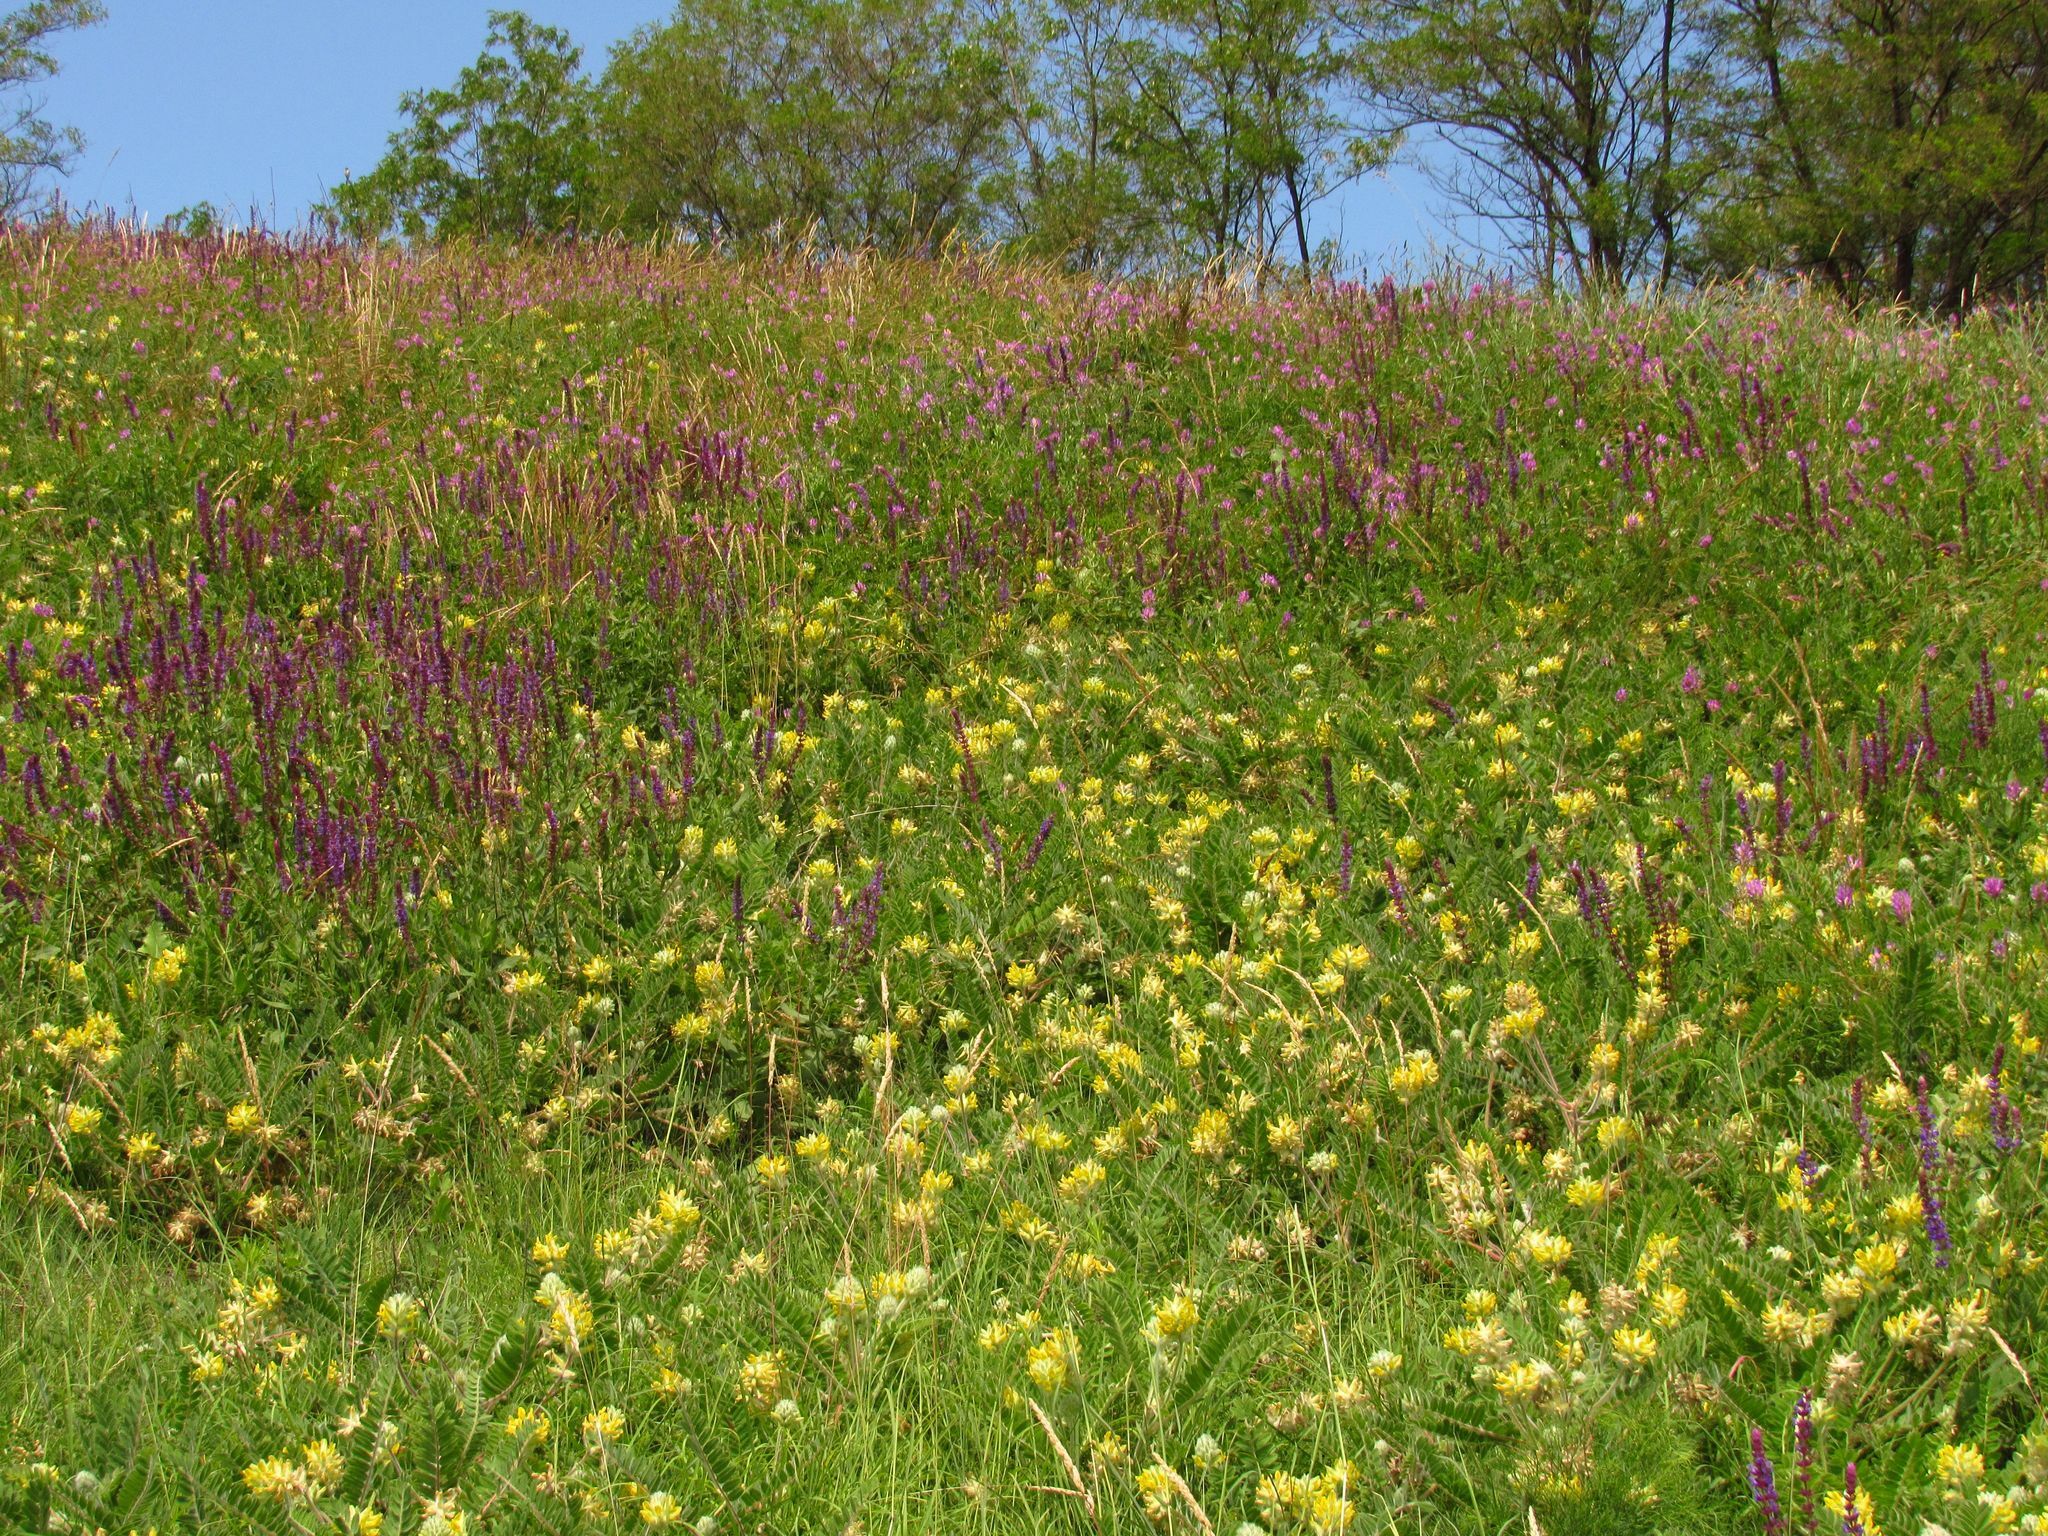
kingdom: Plantae
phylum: Tracheophyta
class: Magnoliopsida
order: Fabales
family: Fabaceae
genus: Astragalus
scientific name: Astragalus dasyanthus
